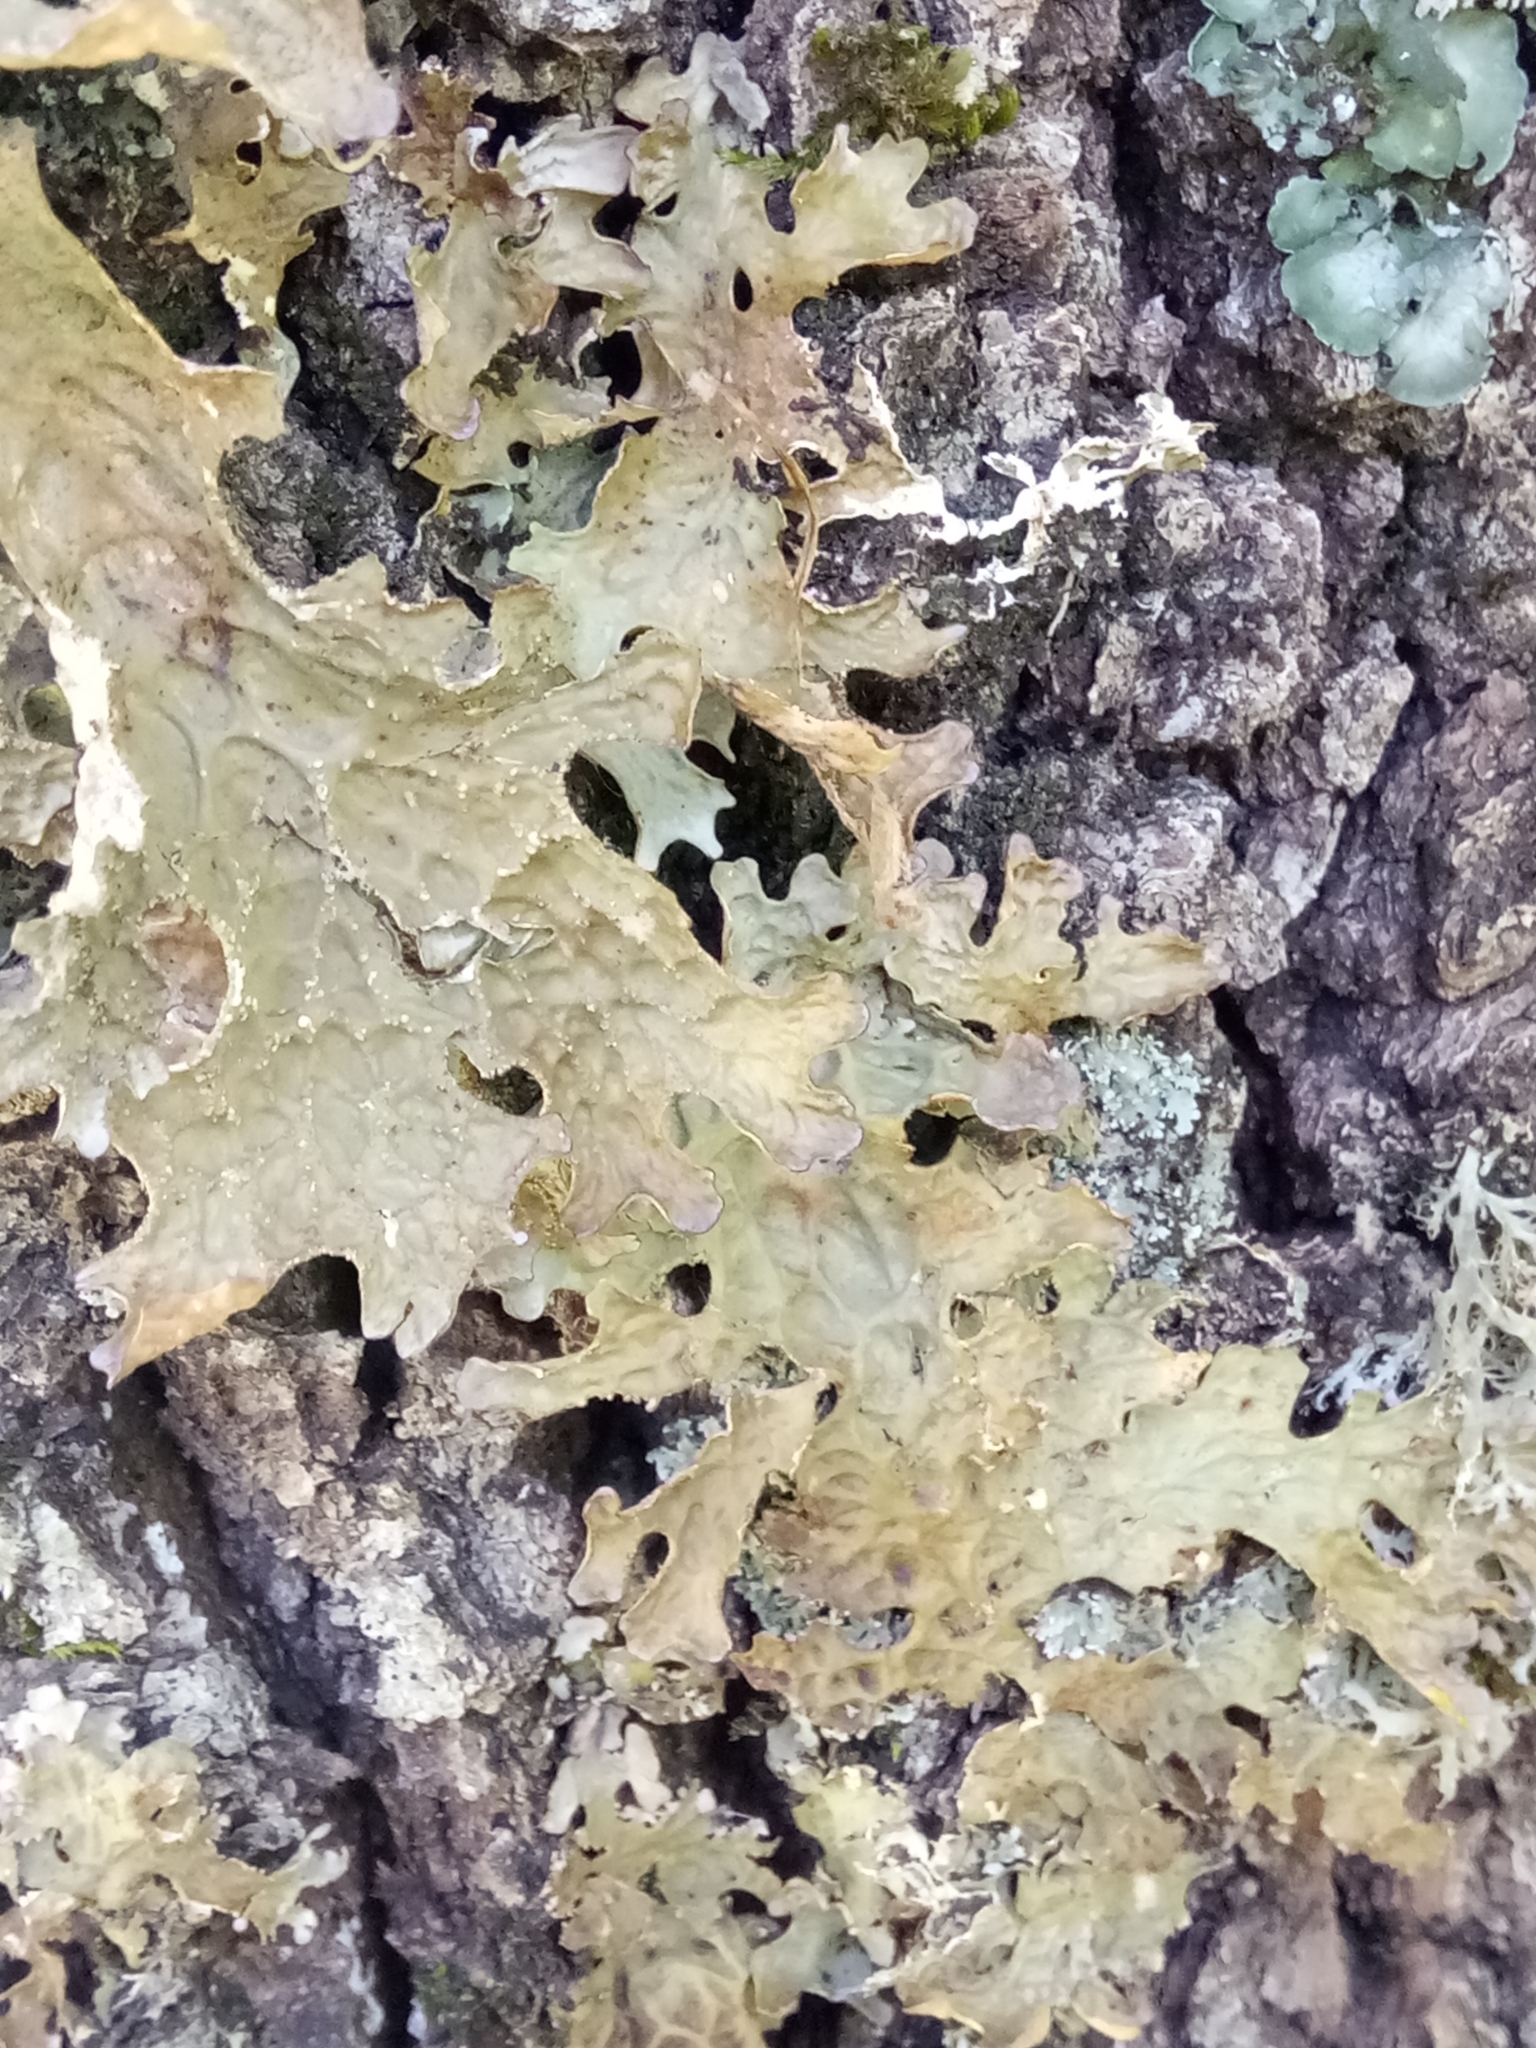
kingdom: Fungi
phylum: Ascomycota
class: Lecanoromycetes
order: Peltigerales
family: Lobariaceae
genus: Lobaria
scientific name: Lobaria pulmonaria
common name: Lungwort
